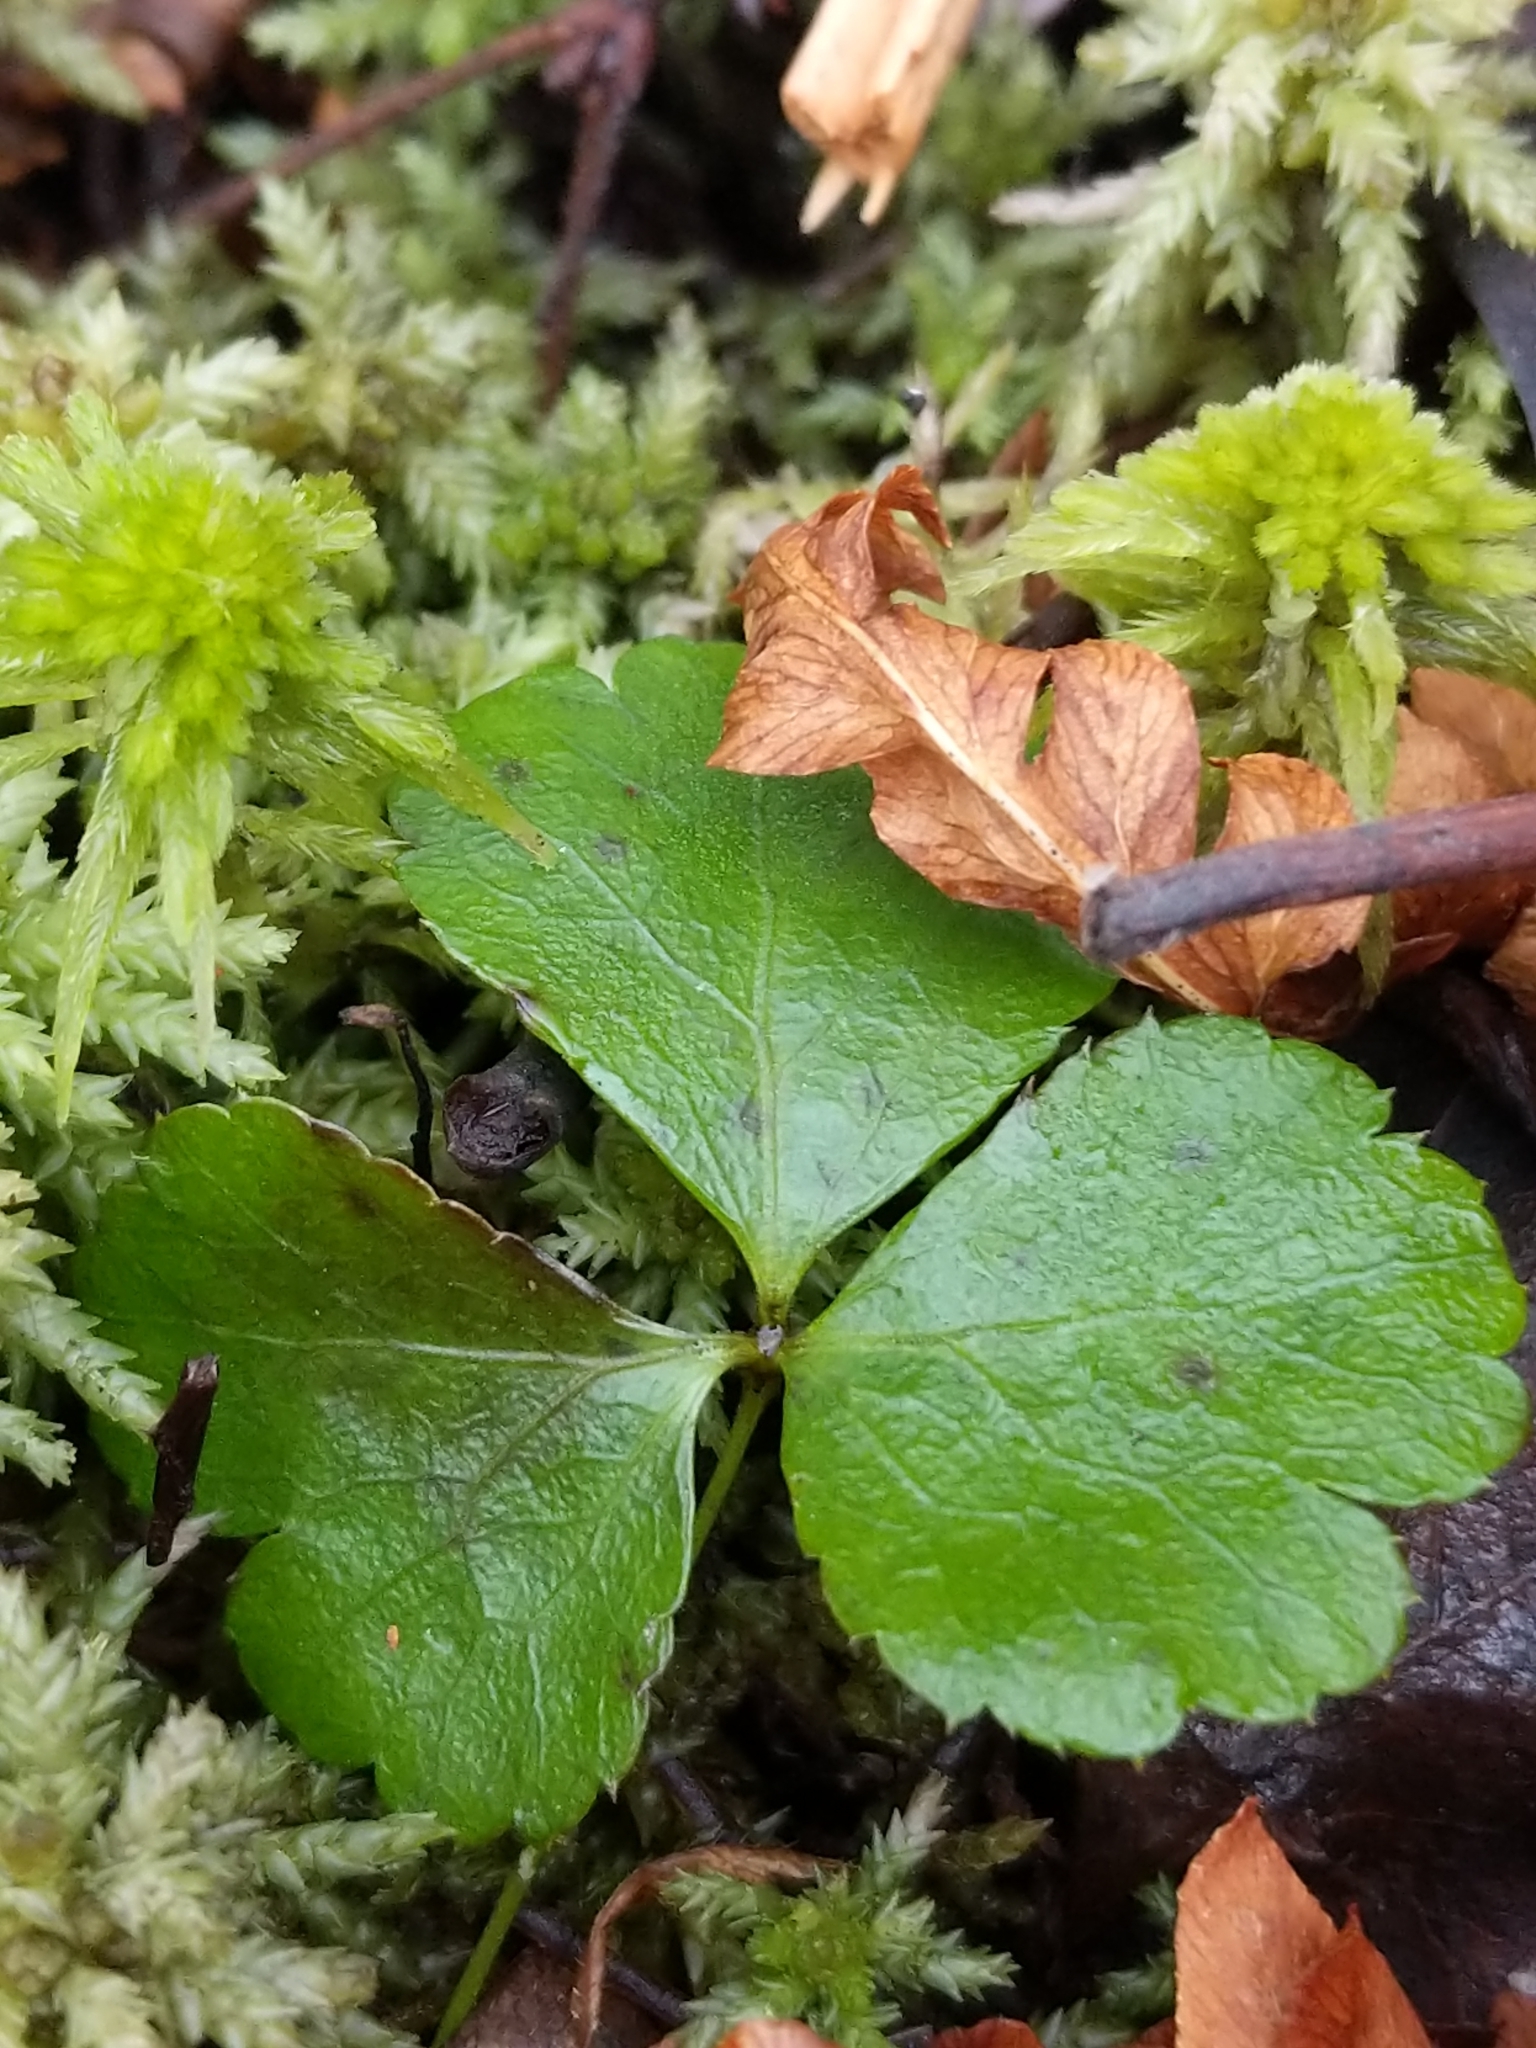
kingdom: Plantae
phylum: Tracheophyta
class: Magnoliopsida
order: Ranunculales
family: Ranunculaceae
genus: Coptis
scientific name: Coptis trifolia
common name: Canker-root
